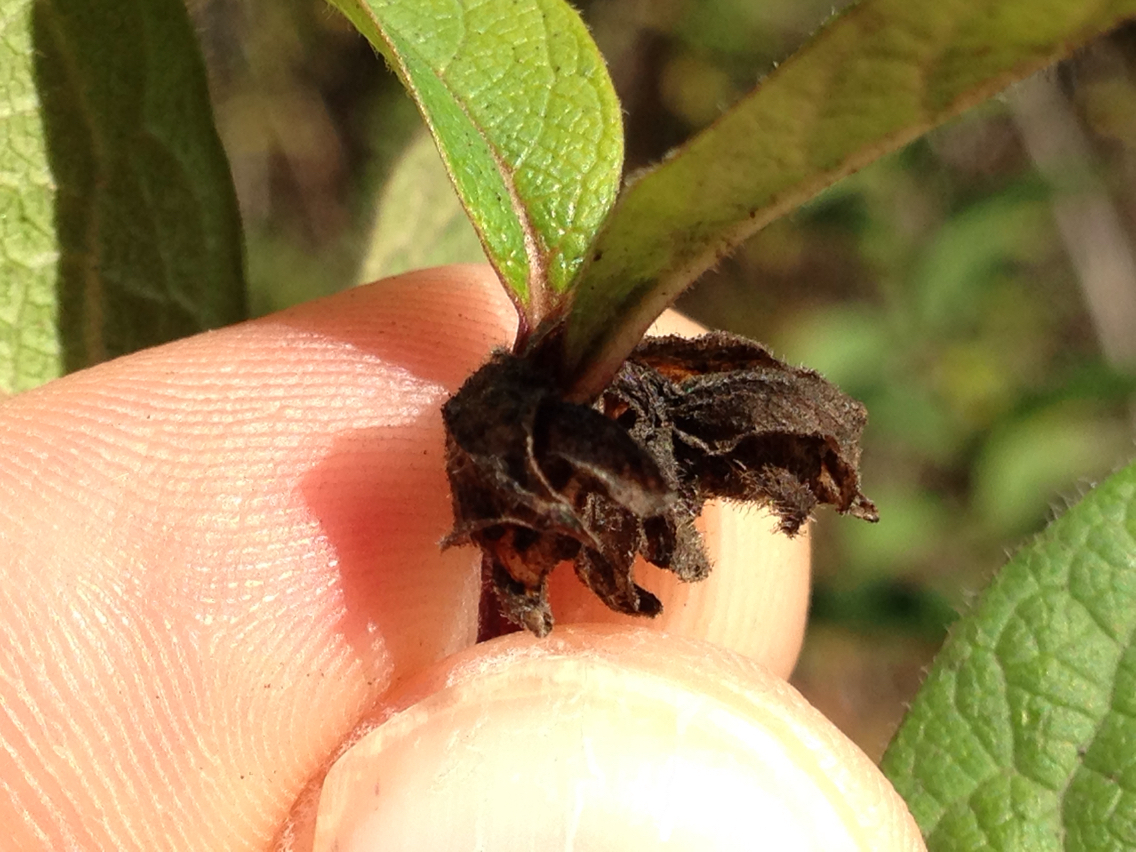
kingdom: Plantae
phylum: Tracheophyta
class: Magnoliopsida
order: Dipsacales
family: Caprifoliaceae
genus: Lonicera
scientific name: Lonicera involucrata
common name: Californian honeysuckle
